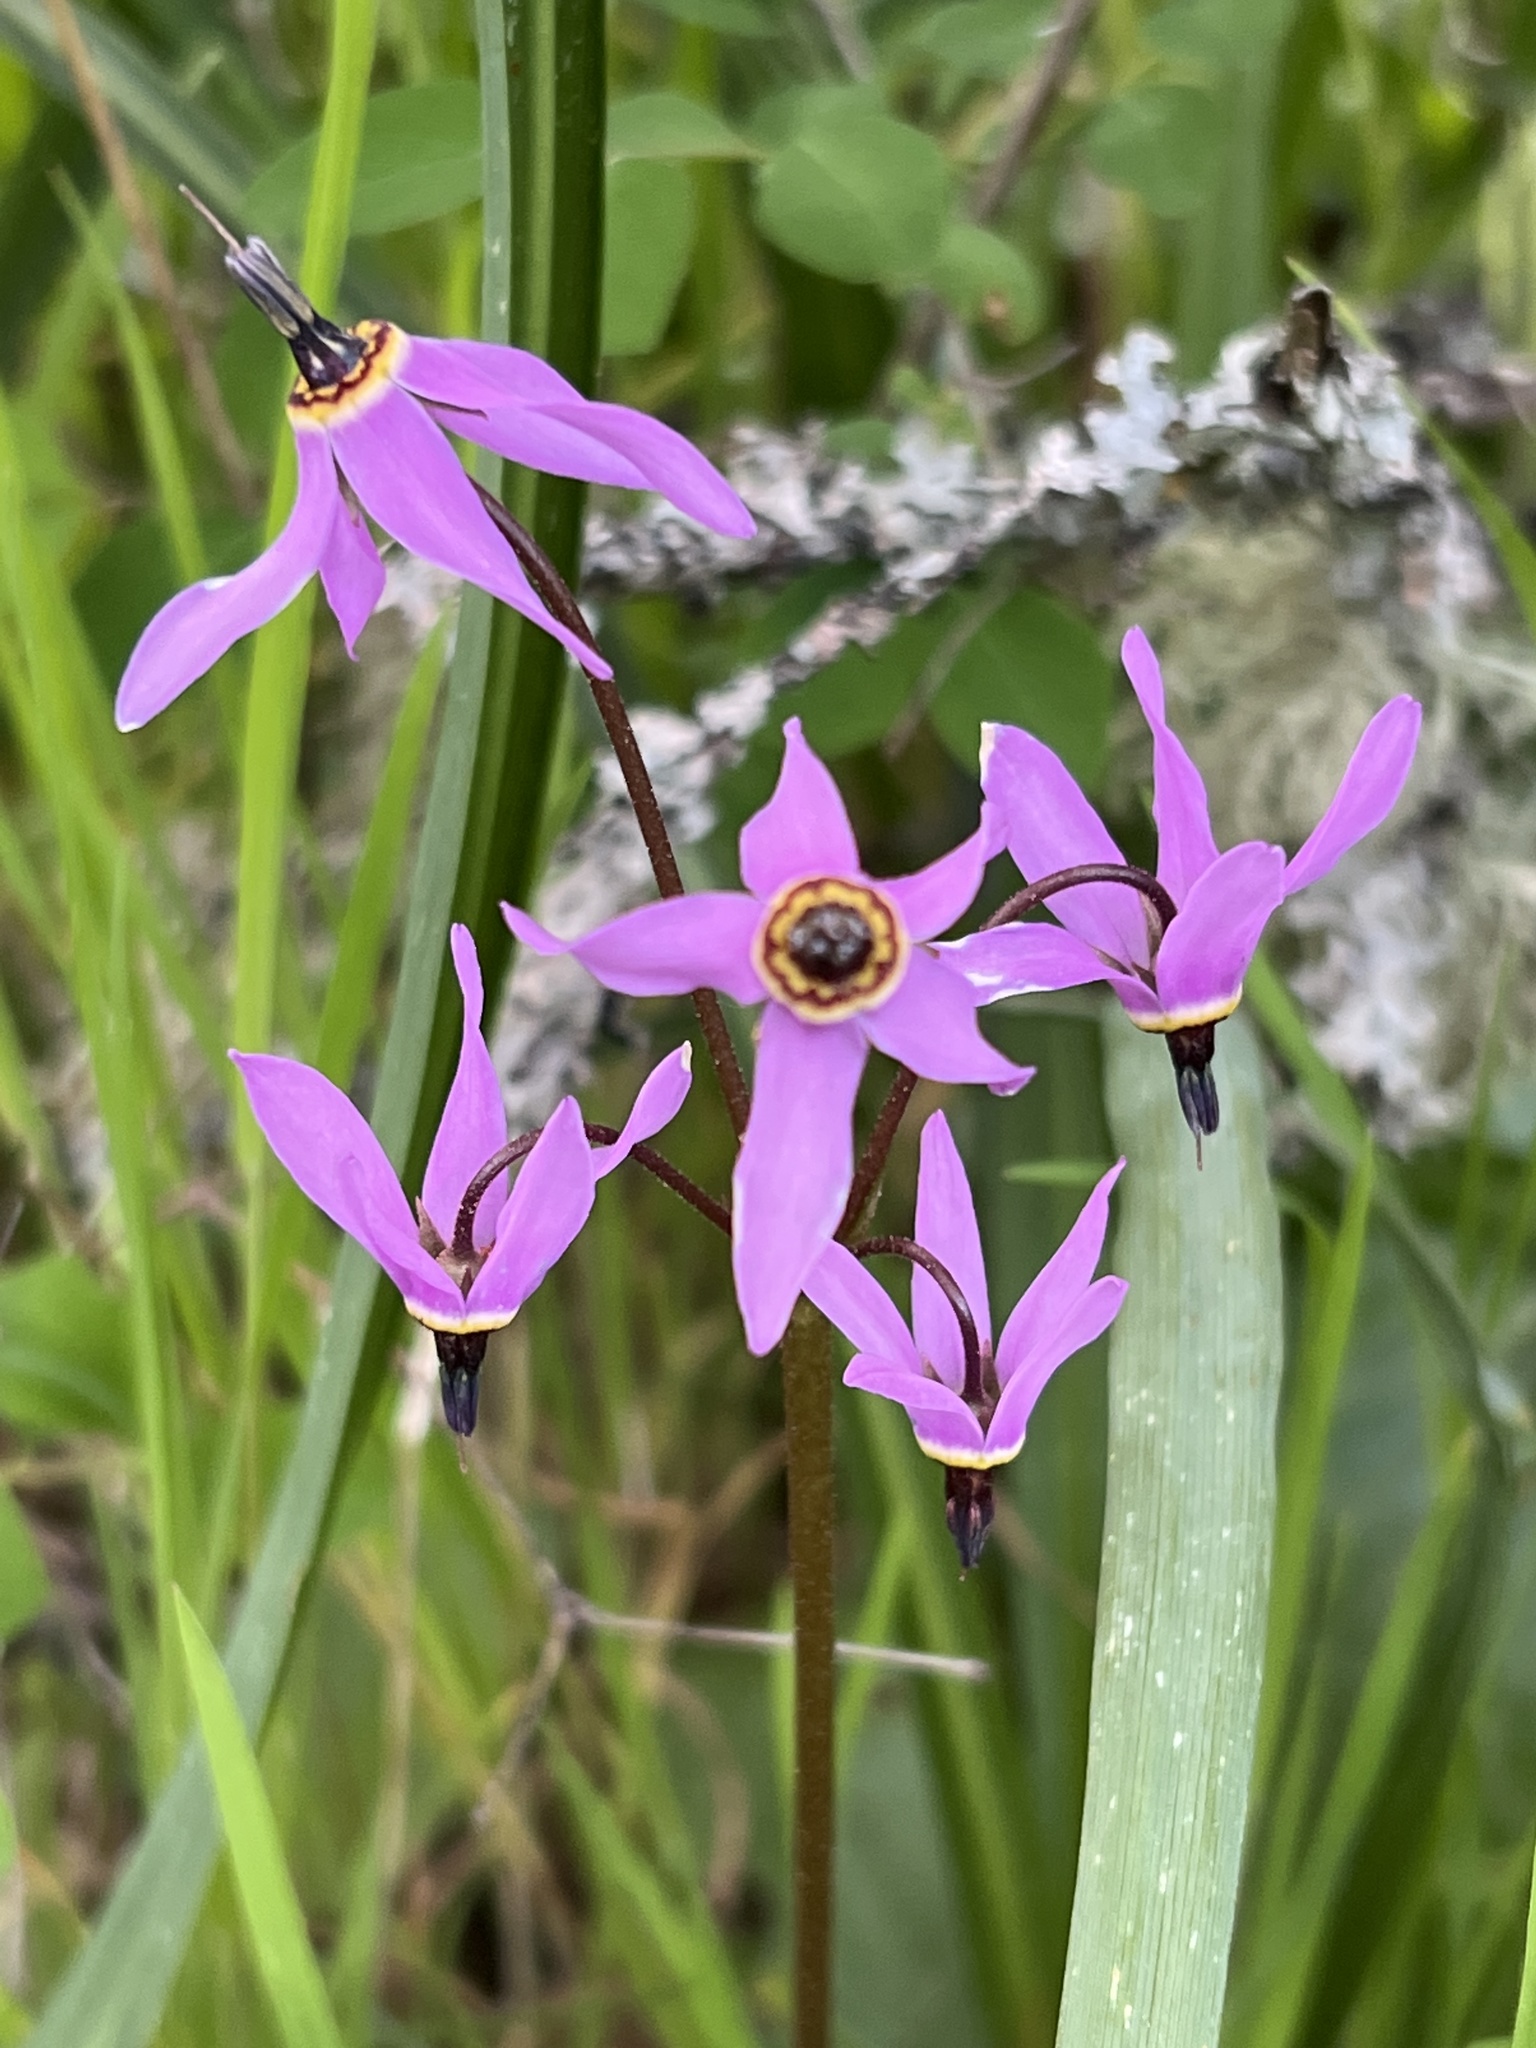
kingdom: Plantae
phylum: Tracheophyta
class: Magnoliopsida
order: Ericales
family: Primulaceae
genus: Dodecatheon
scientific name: Dodecatheon hendersonii
